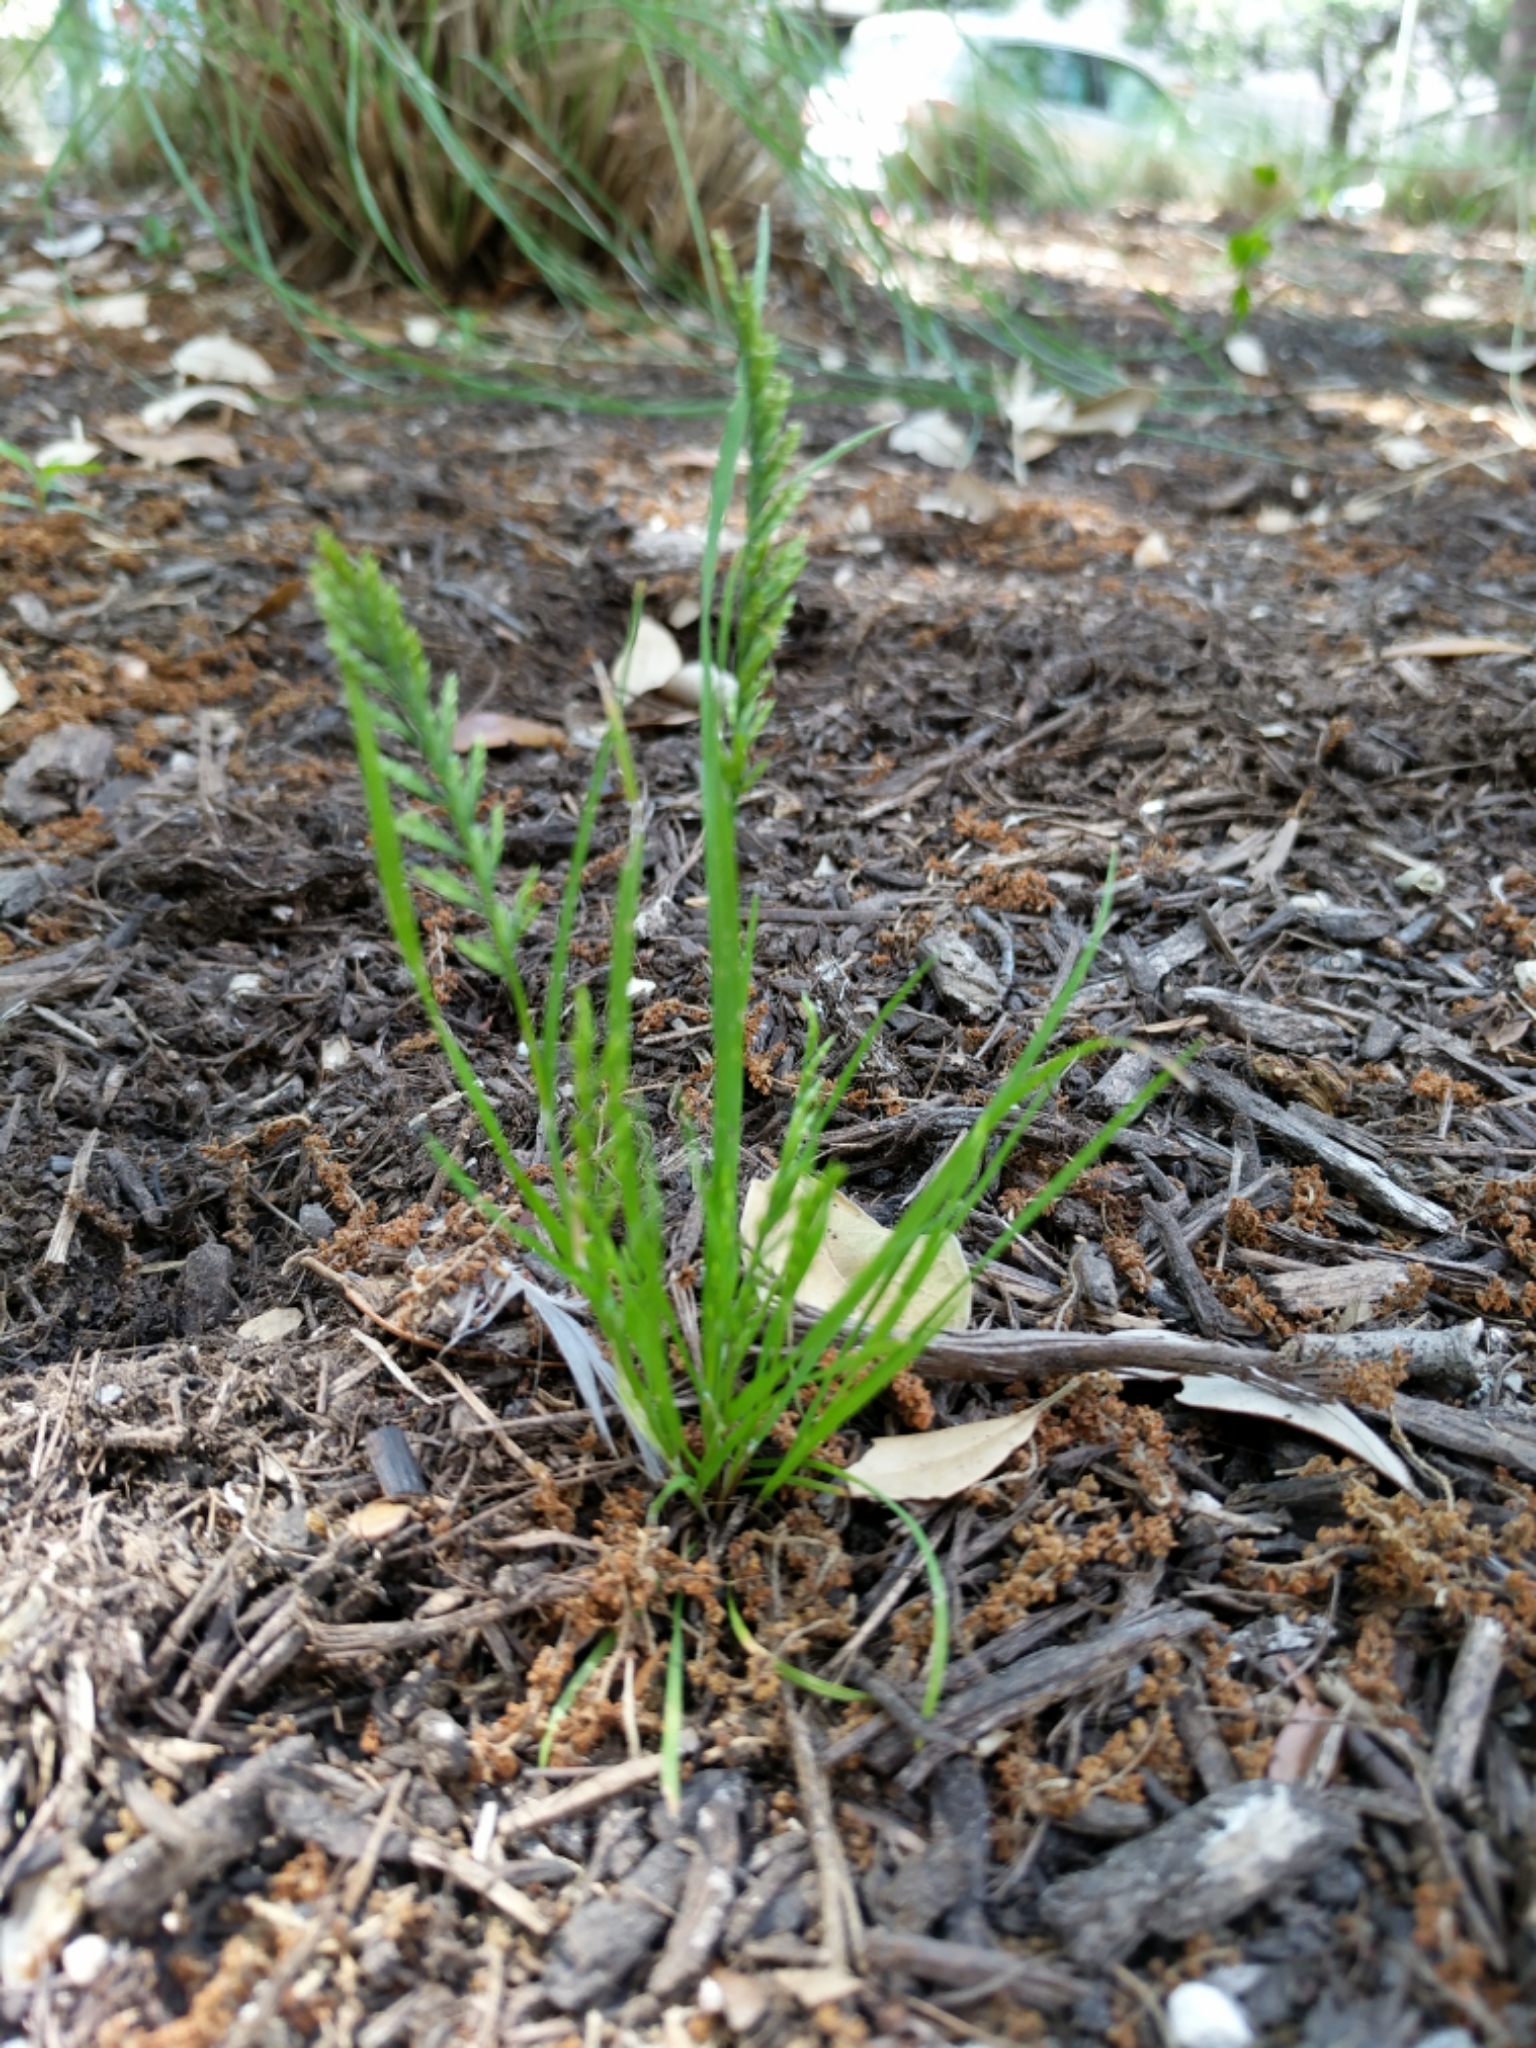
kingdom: Plantae
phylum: Tracheophyta
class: Liliopsida
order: Poales
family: Poaceae
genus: Catapodium
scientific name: Catapodium rigidum
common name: Fern-grass
